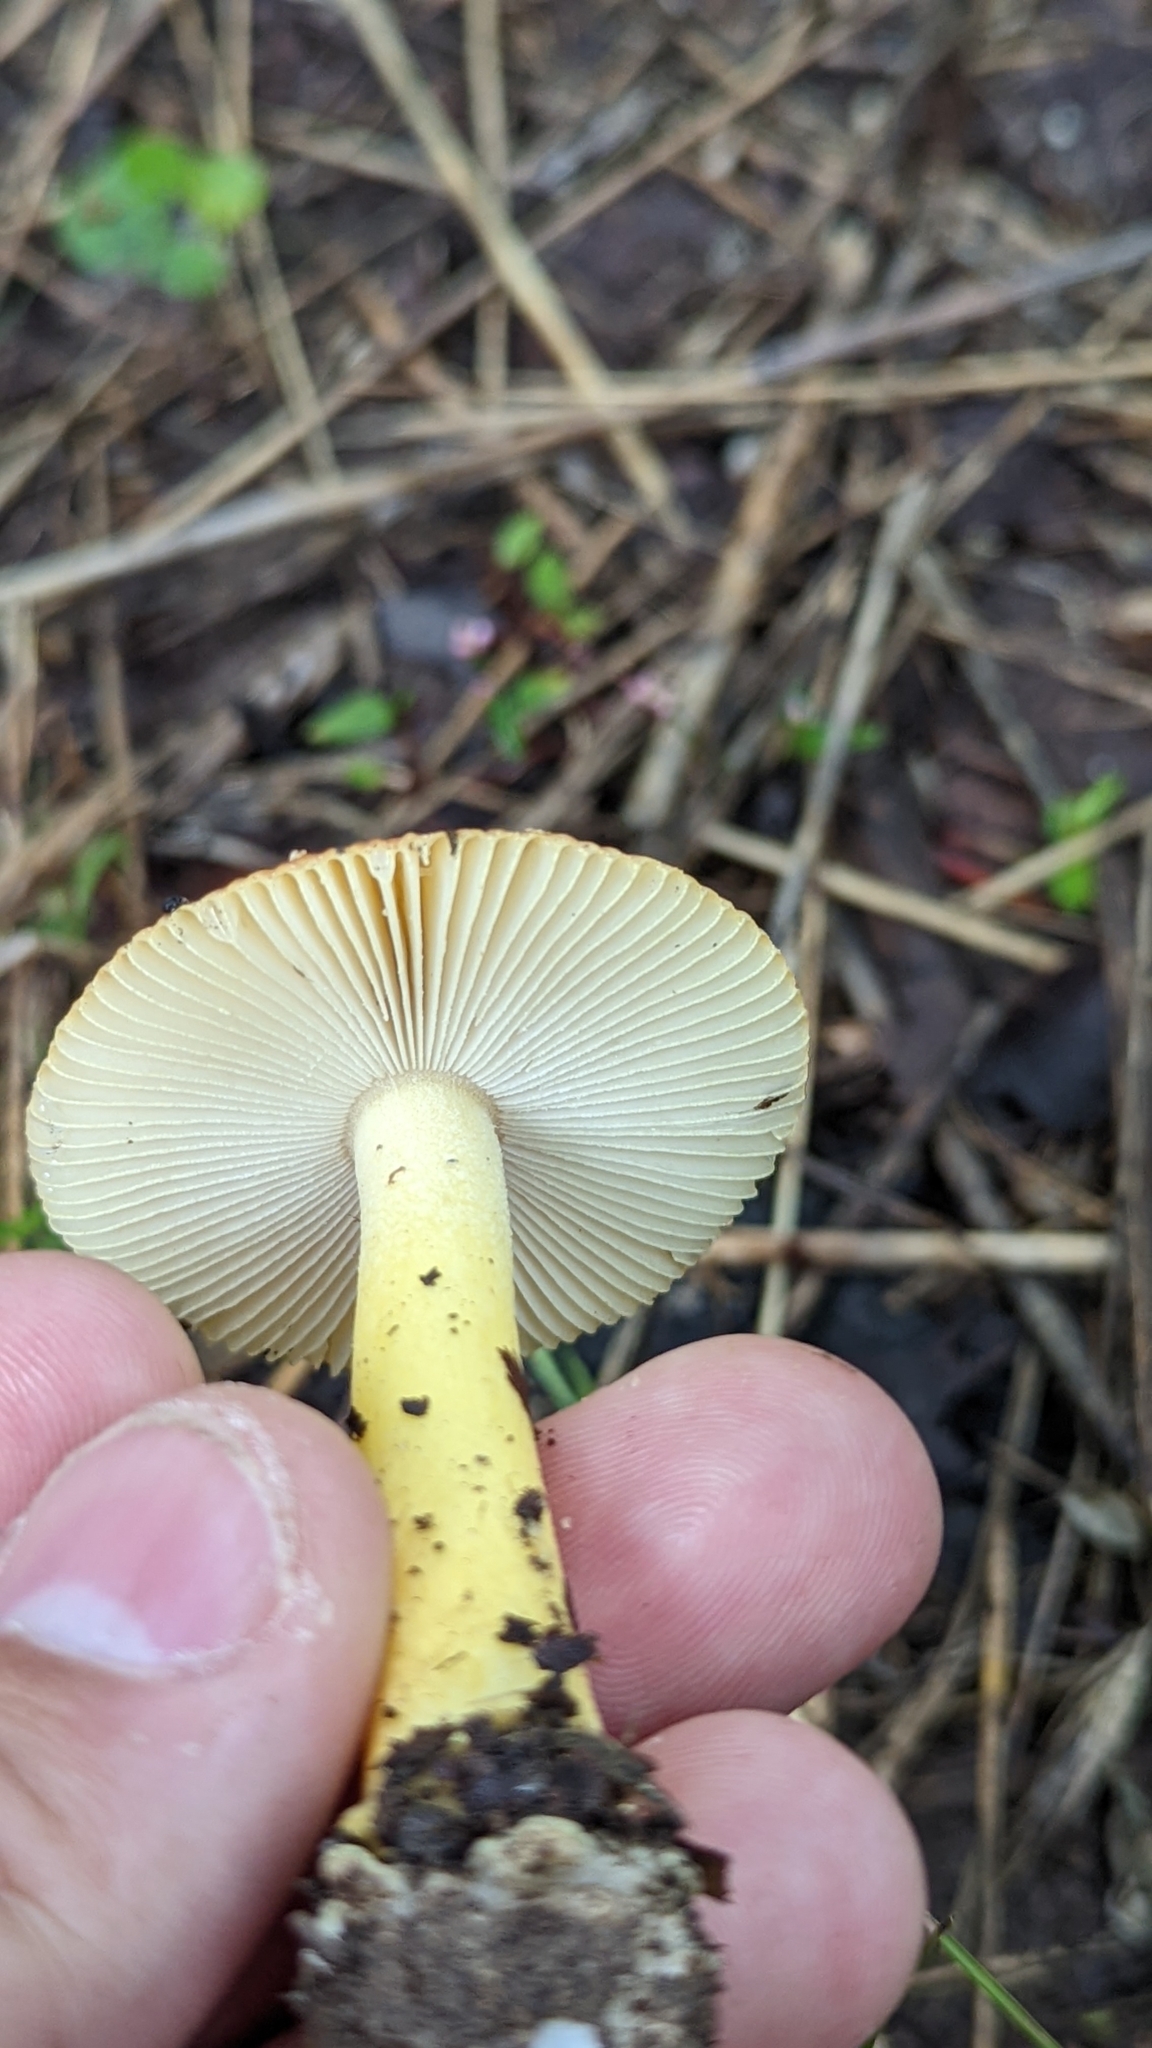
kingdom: Fungi
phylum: Basidiomycota
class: Agaricomycetes
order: Agaricales
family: Amanitaceae
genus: Amanita
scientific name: Amanita parcivolvata
